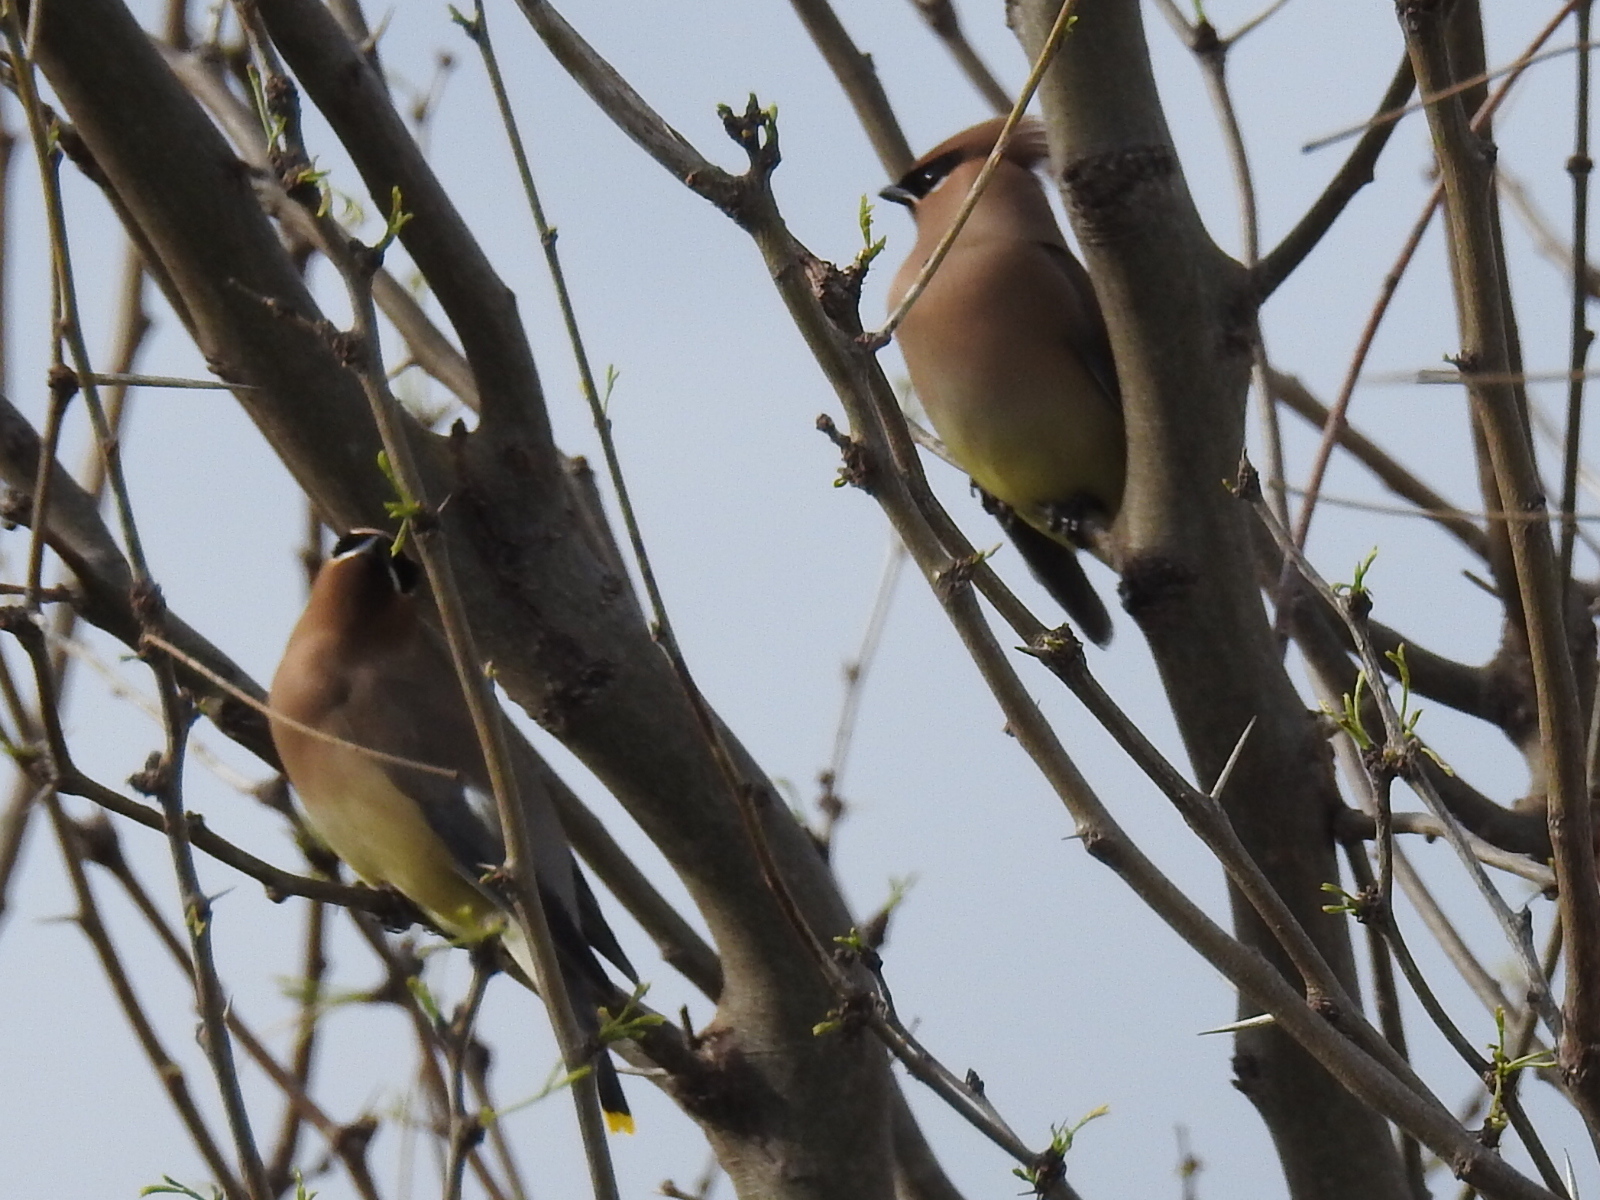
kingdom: Animalia
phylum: Chordata
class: Aves
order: Passeriformes
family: Bombycillidae
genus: Bombycilla
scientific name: Bombycilla cedrorum
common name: Cedar waxwing
